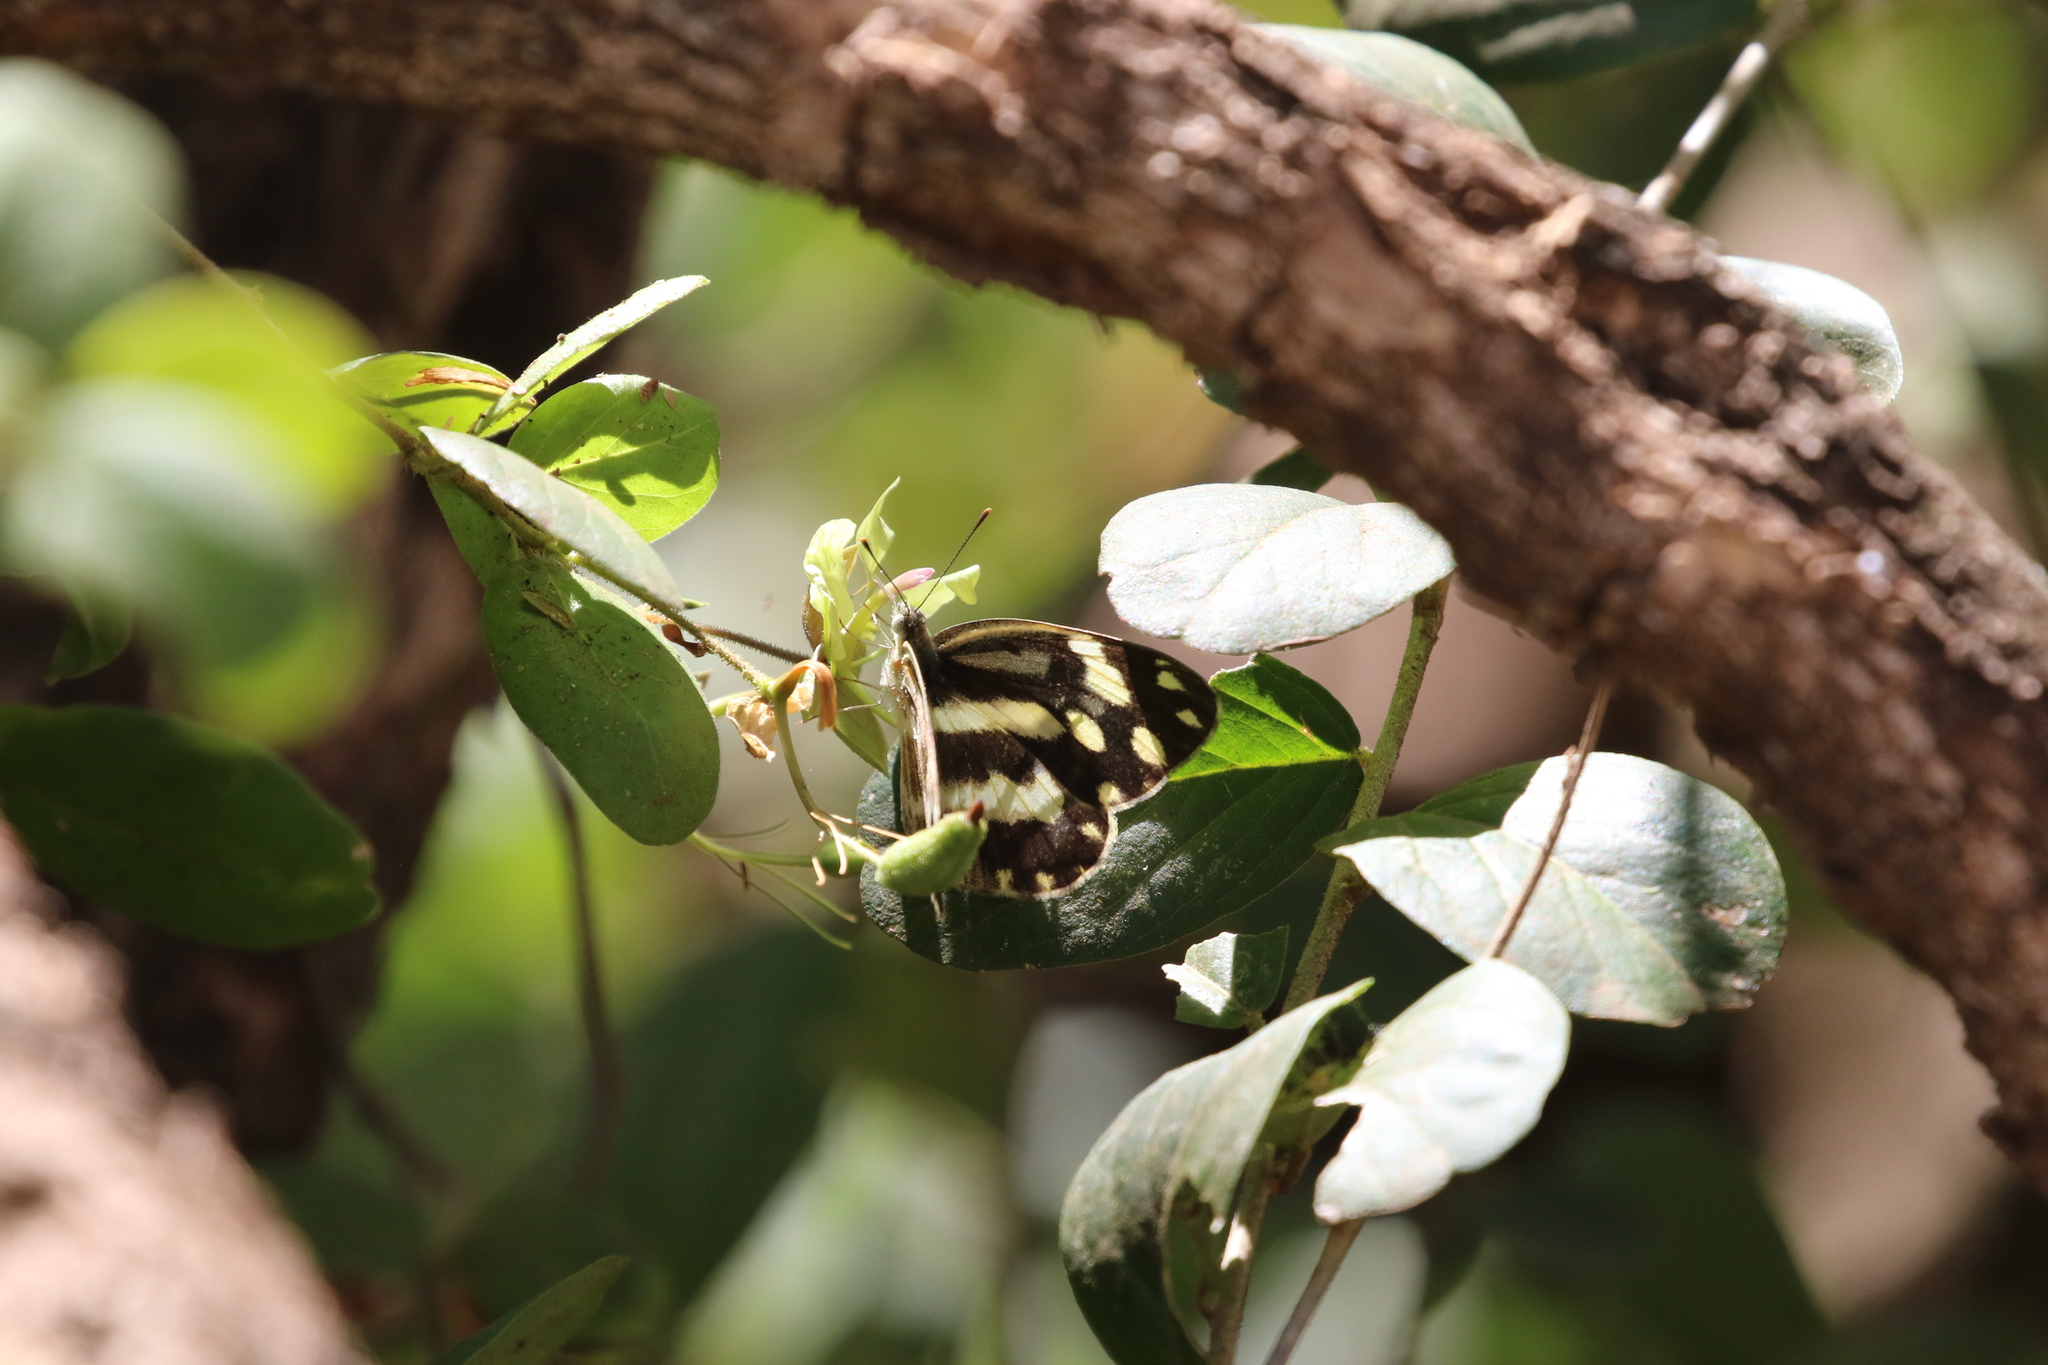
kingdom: Animalia
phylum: Arthropoda
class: Insecta
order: Lepidoptera
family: Pieridae
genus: Pinacopteryx
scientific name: Pinacopteryx eriphia
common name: Zebra white
